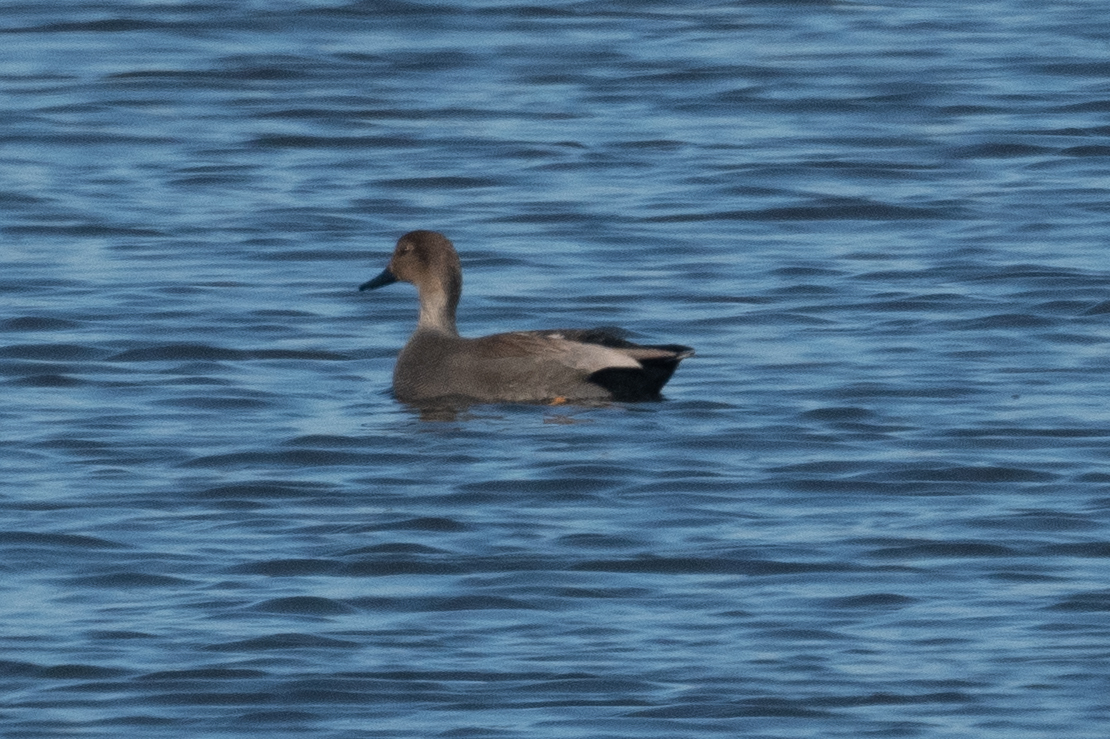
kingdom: Animalia
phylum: Chordata
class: Aves
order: Anseriformes
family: Anatidae
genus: Mareca
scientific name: Mareca strepera
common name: Gadwall
